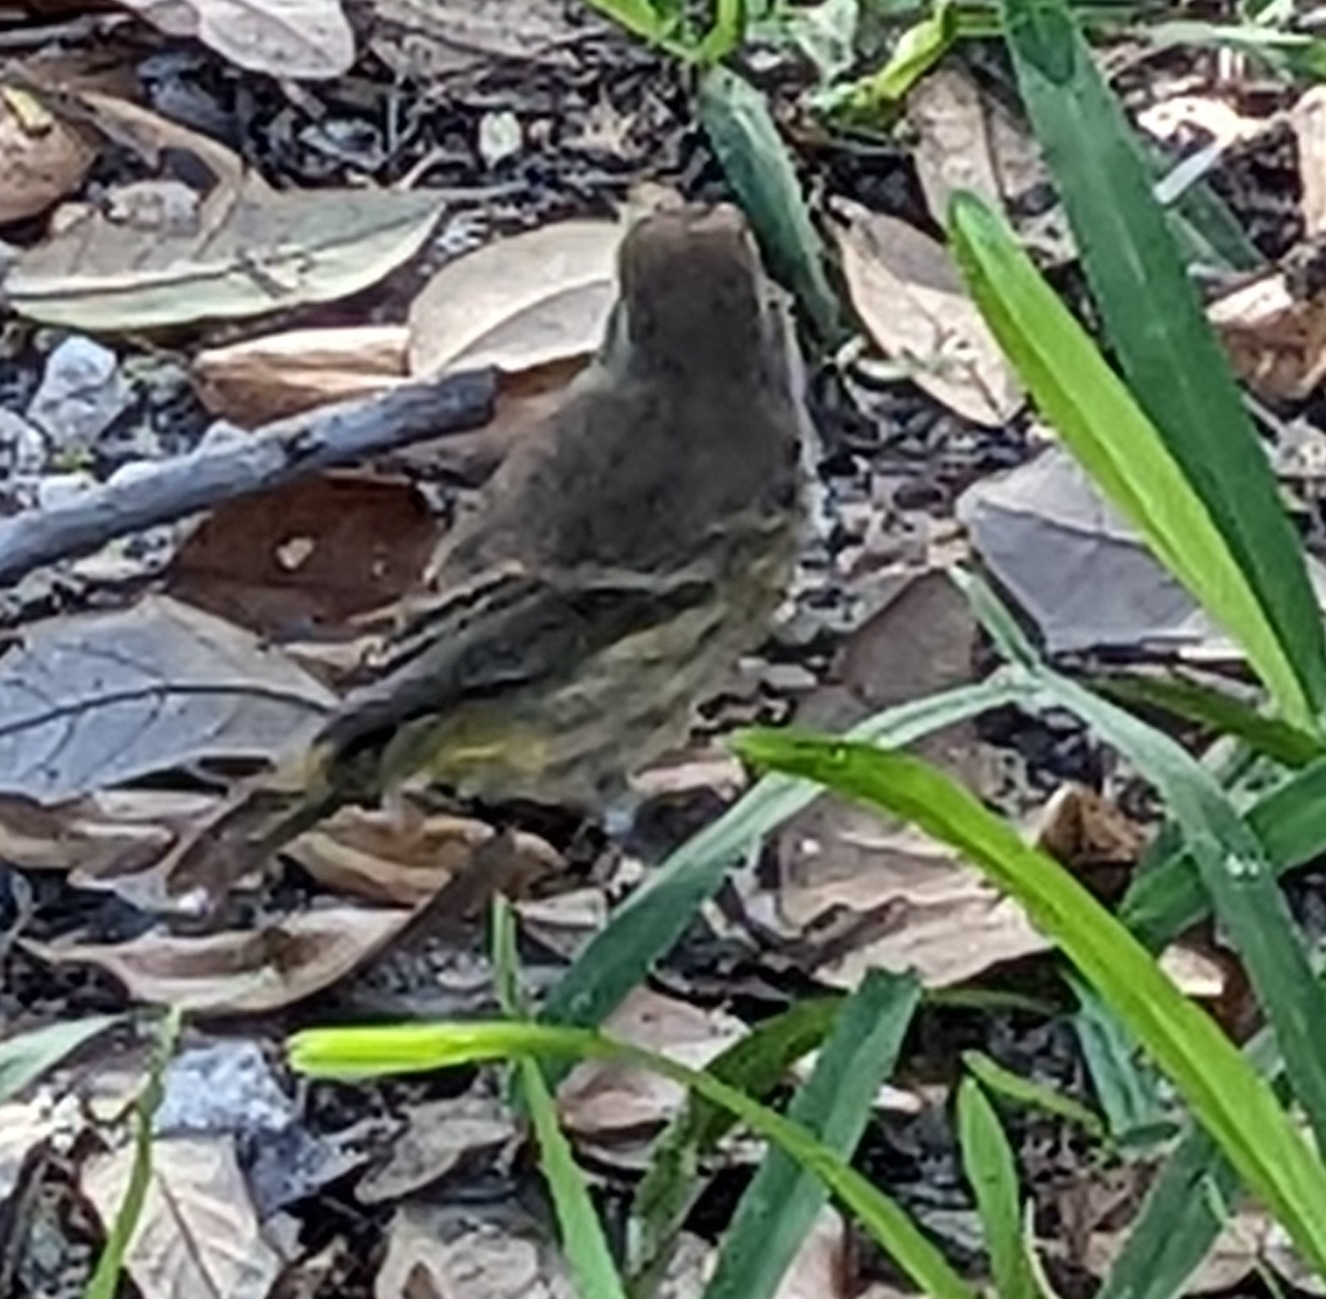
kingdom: Animalia
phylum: Chordata
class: Aves
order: Passeriformes
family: Parulidae
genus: Setophaga
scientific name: Setophaga palmarum
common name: Palm warbler
